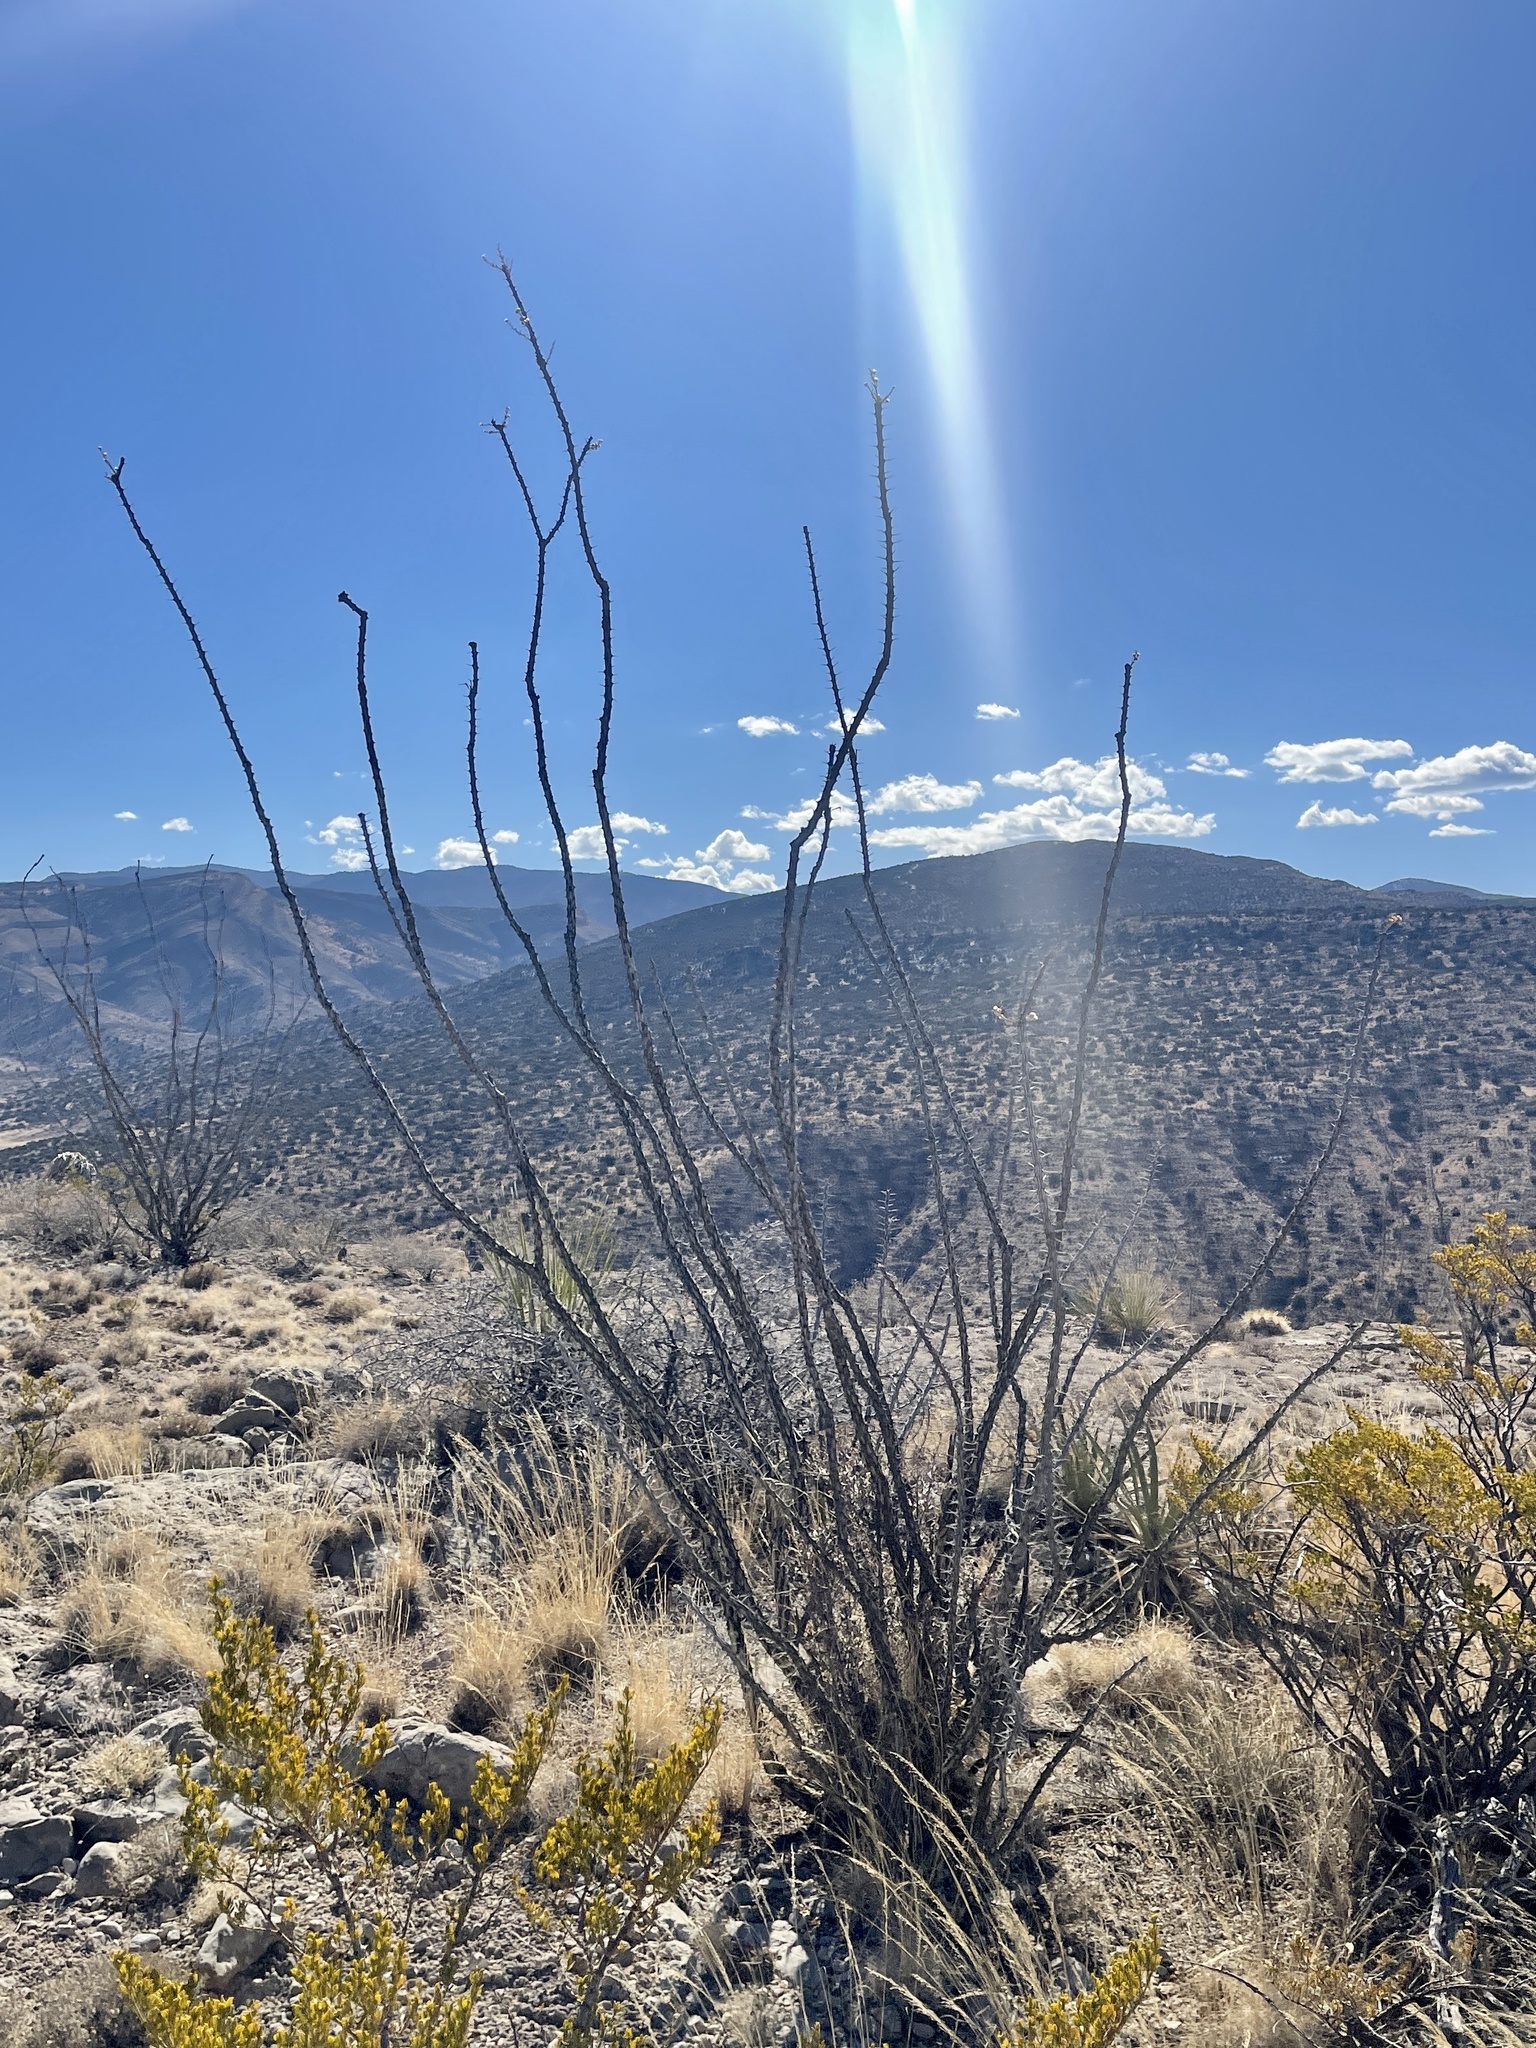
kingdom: Plantae
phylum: Tracheophyta
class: Magnoliopsida
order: Ericales
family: Fouquieriaceae
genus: Fouquieria
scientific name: Fouquieria splendens
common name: Vine-cactus
